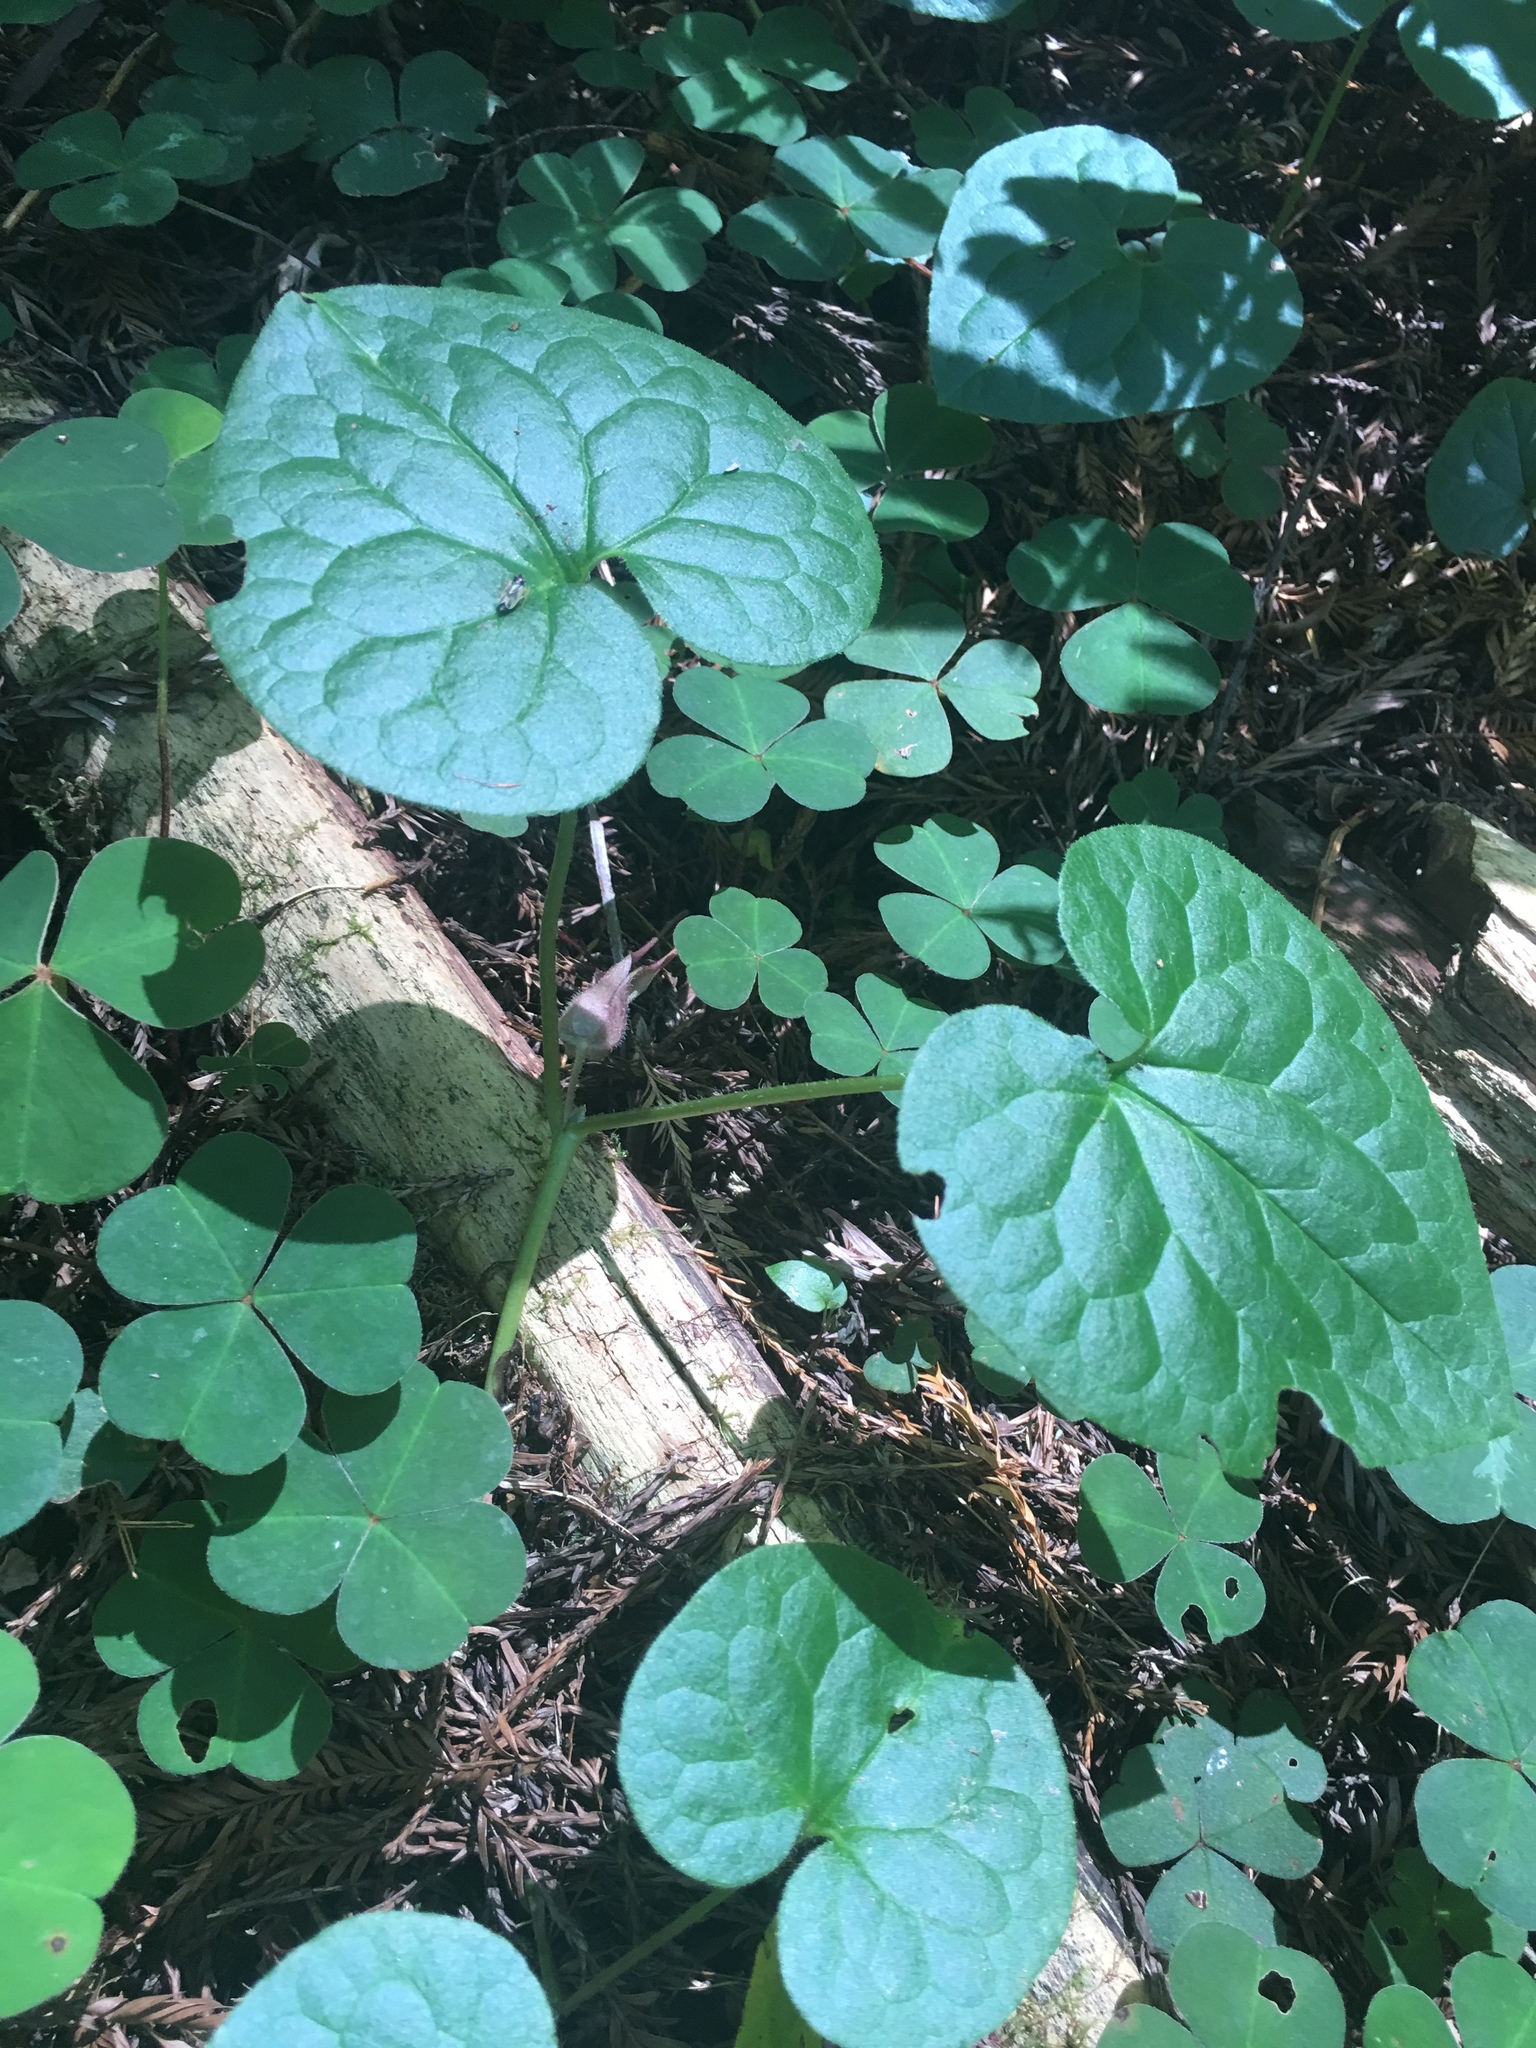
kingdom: Plantae
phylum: Tracheophyta
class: Magnoliopsida
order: Piperales
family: Aristolochiaceae
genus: Asarum
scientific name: Asarum caudatum
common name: Wild ginger
